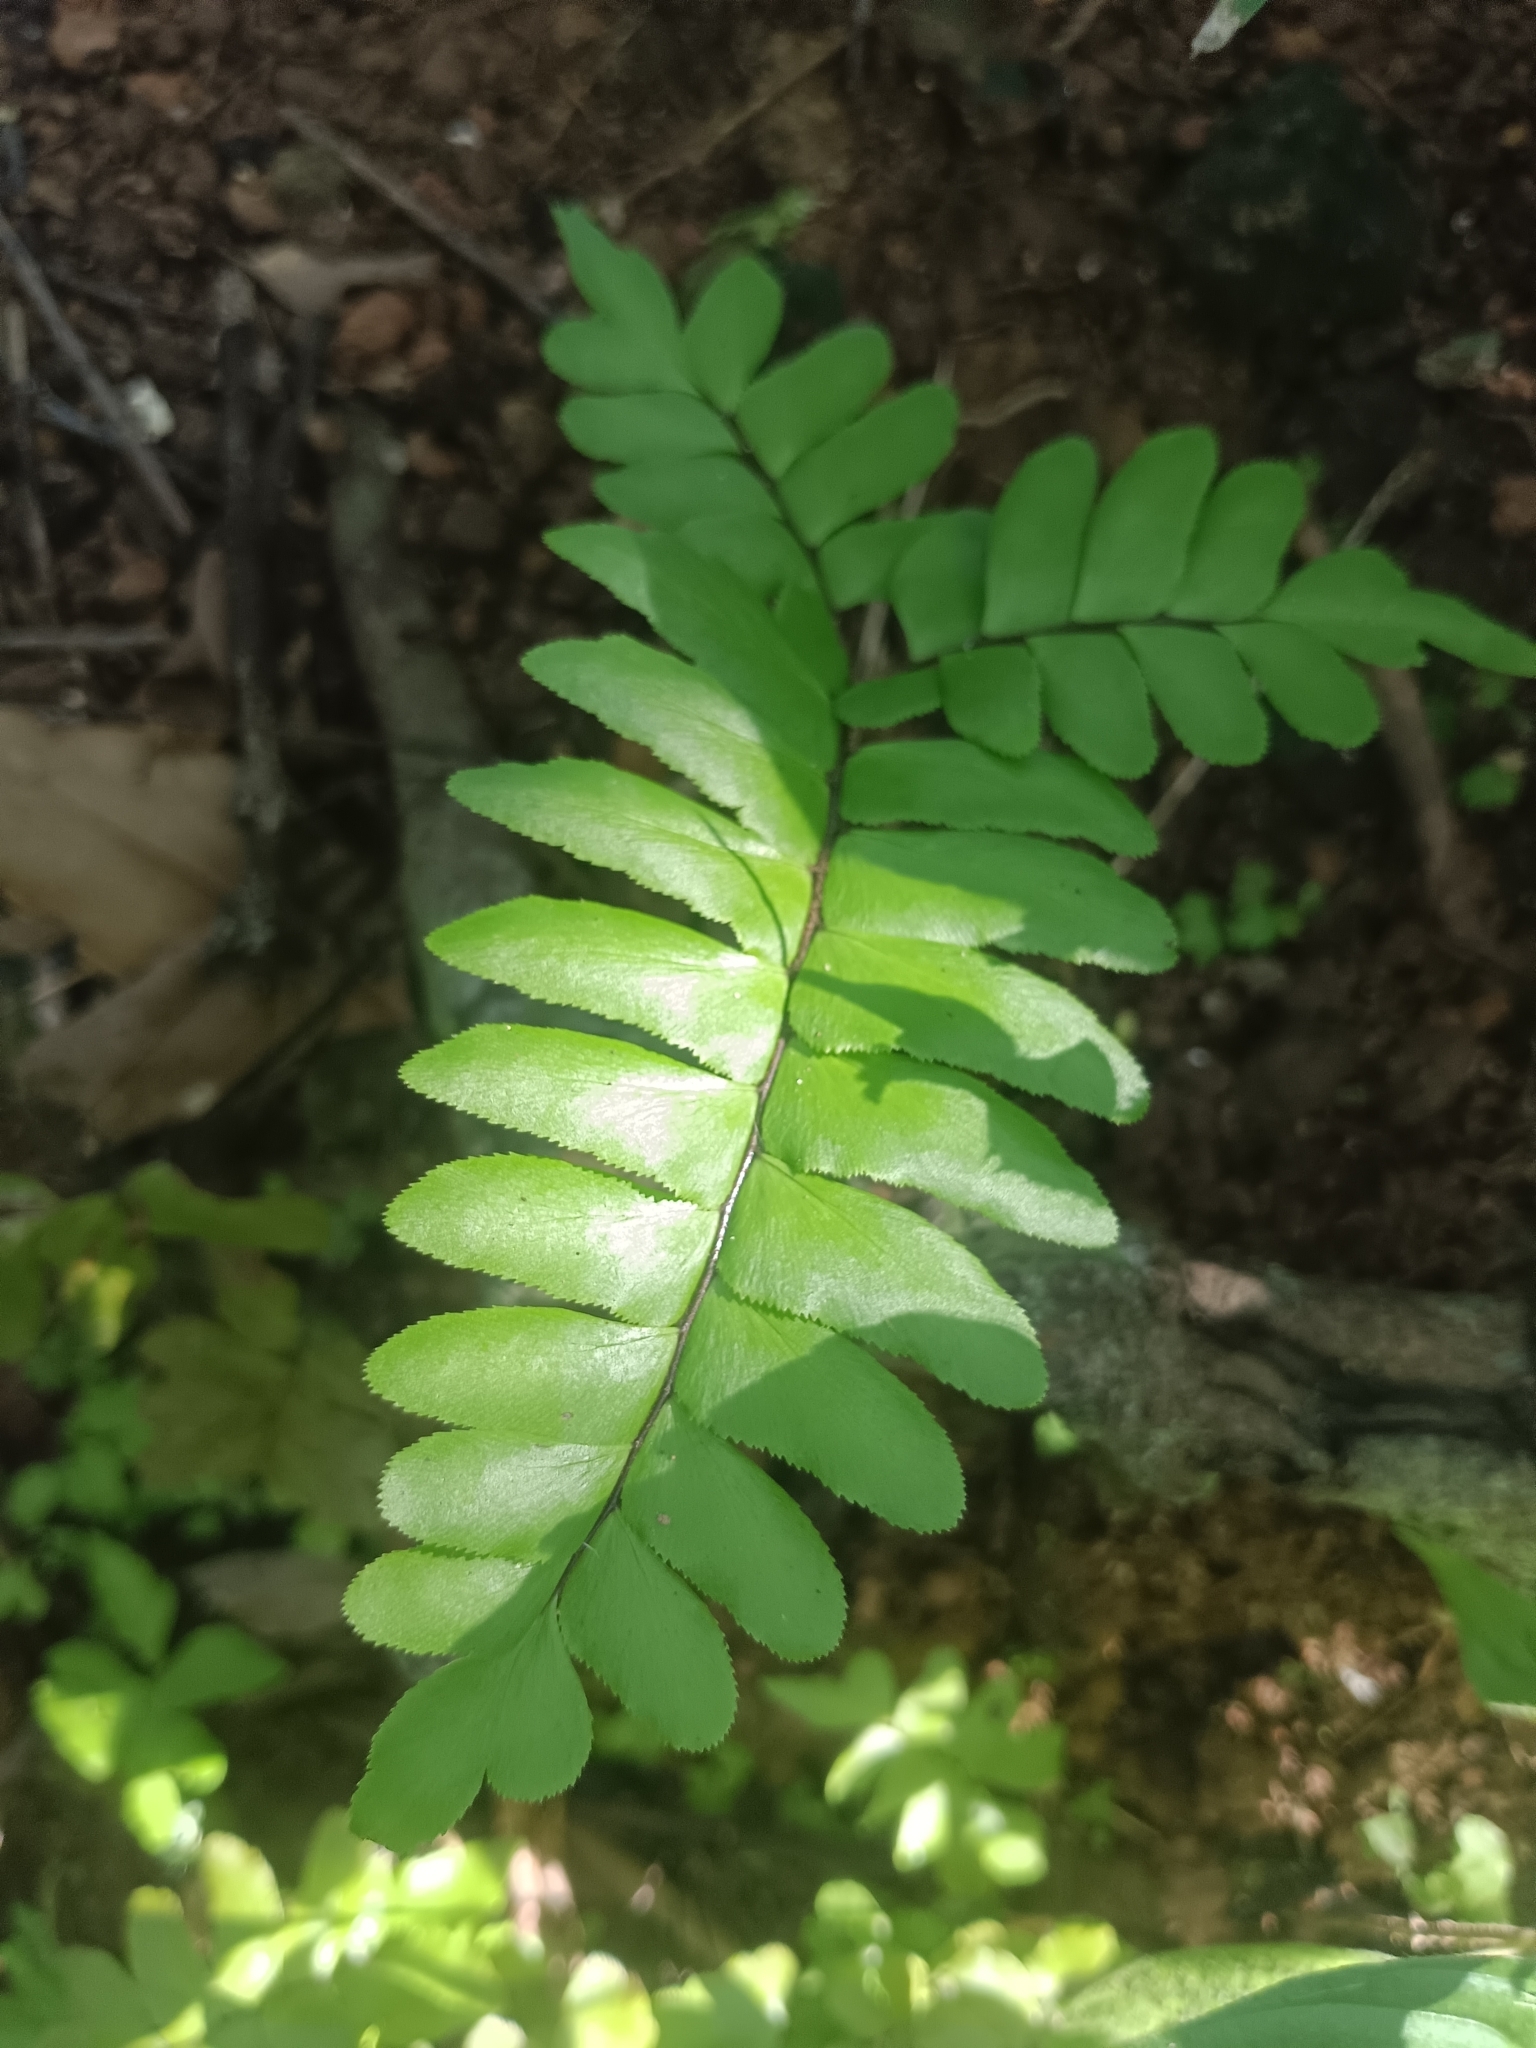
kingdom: Plantae
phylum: Tracheophyta
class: Polypodiopsida
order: Polypodiales
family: Pteridaceae
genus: Adiantum
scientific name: Adiantum latifolium
